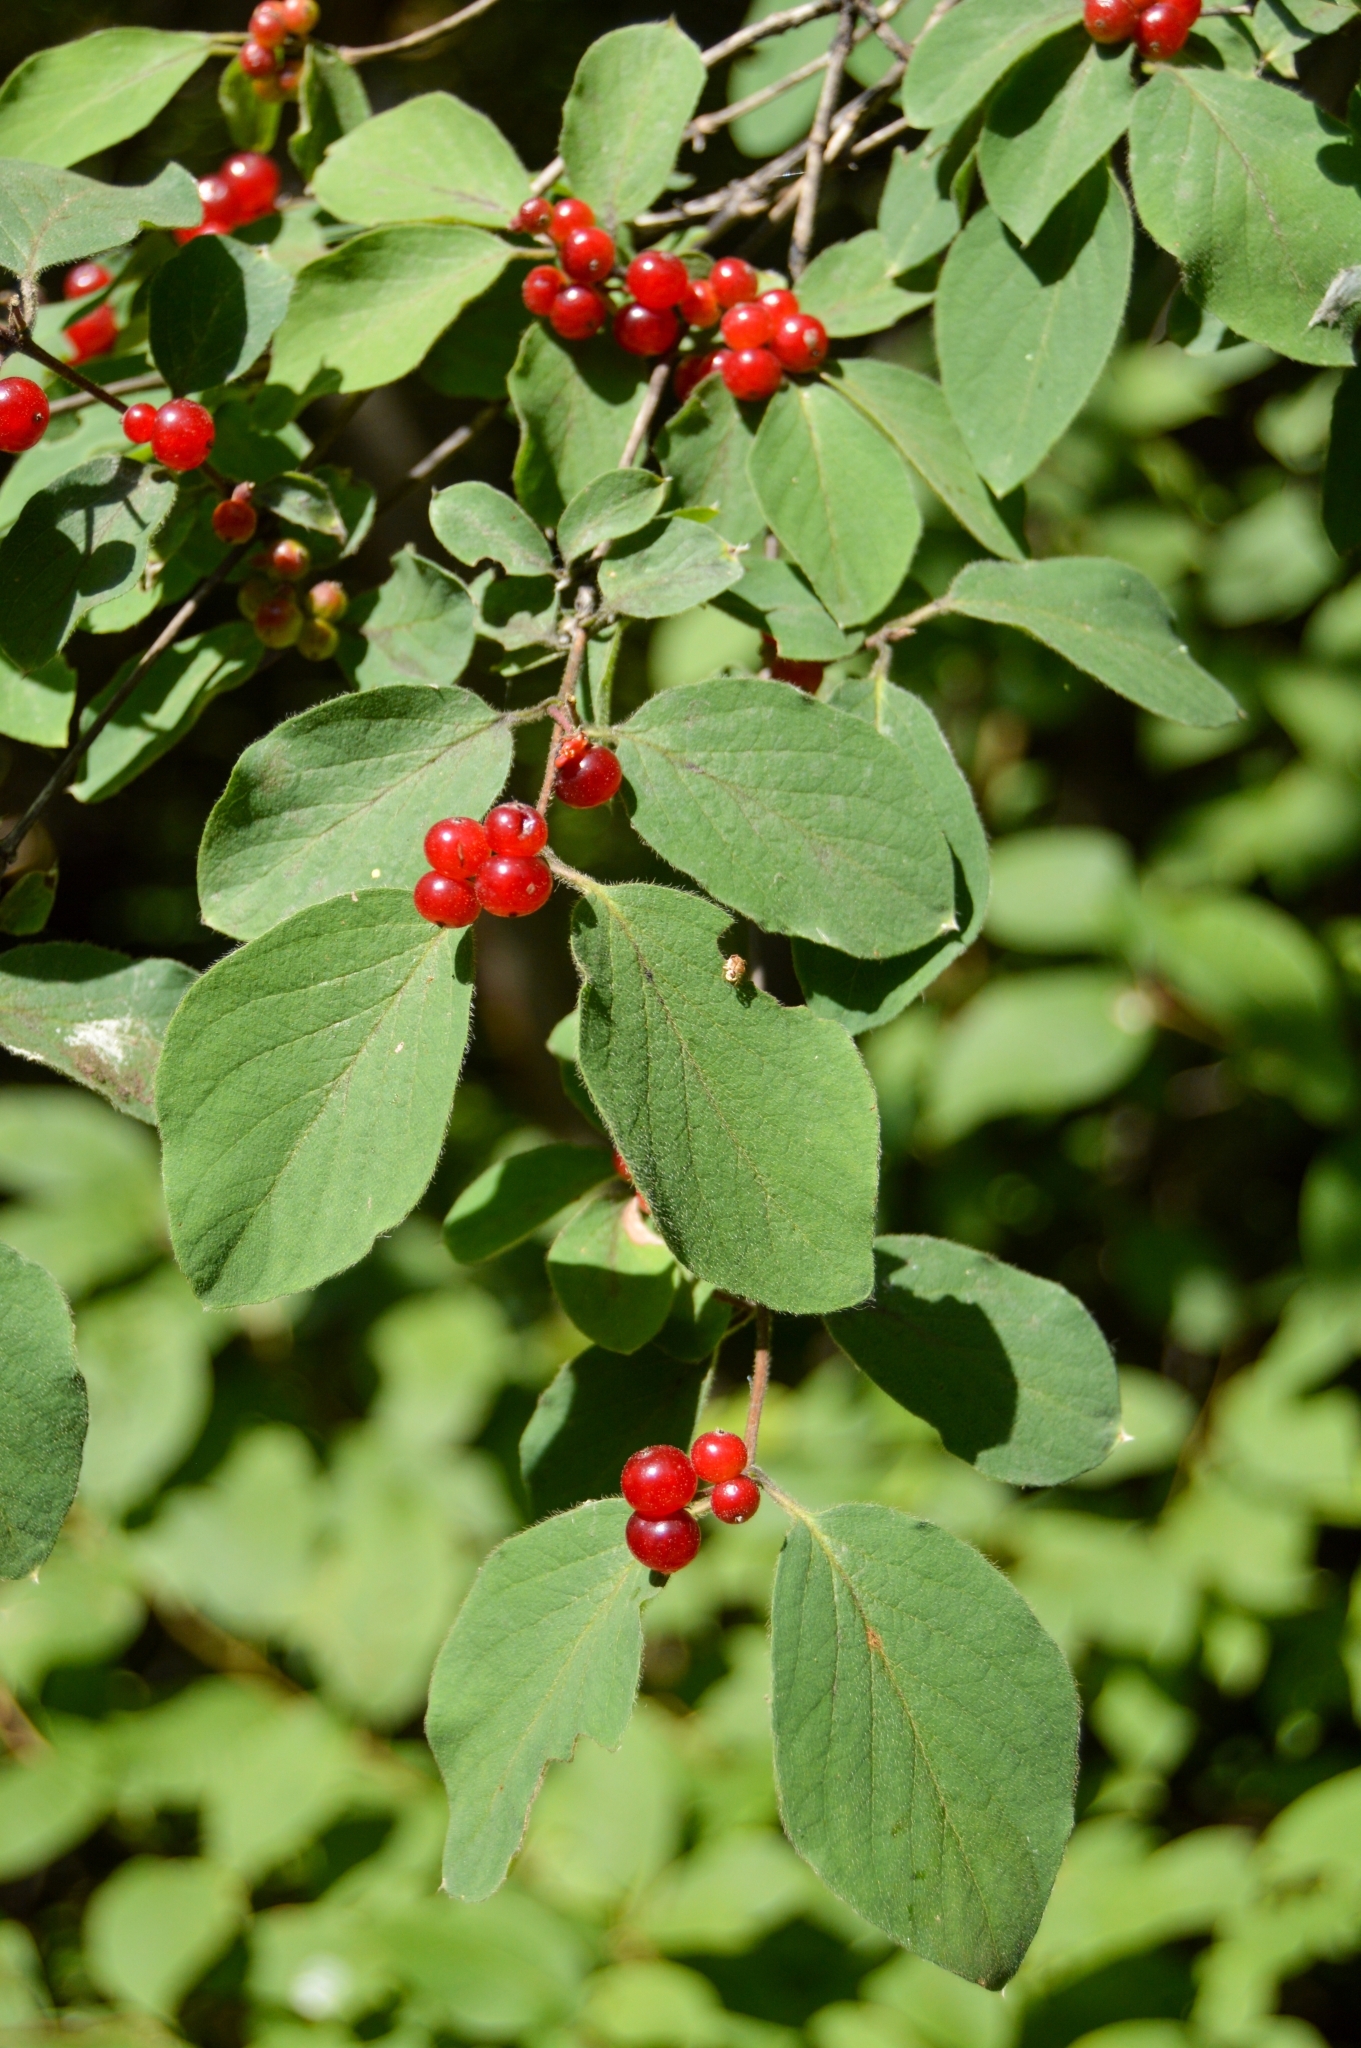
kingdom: Plantae
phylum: Tracheophyta
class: Magnoliopsida
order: Dipsacales
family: Caprifoliaceae
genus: Lonicera
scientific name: Lonicera xylosteum
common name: Fly honeysuckle
